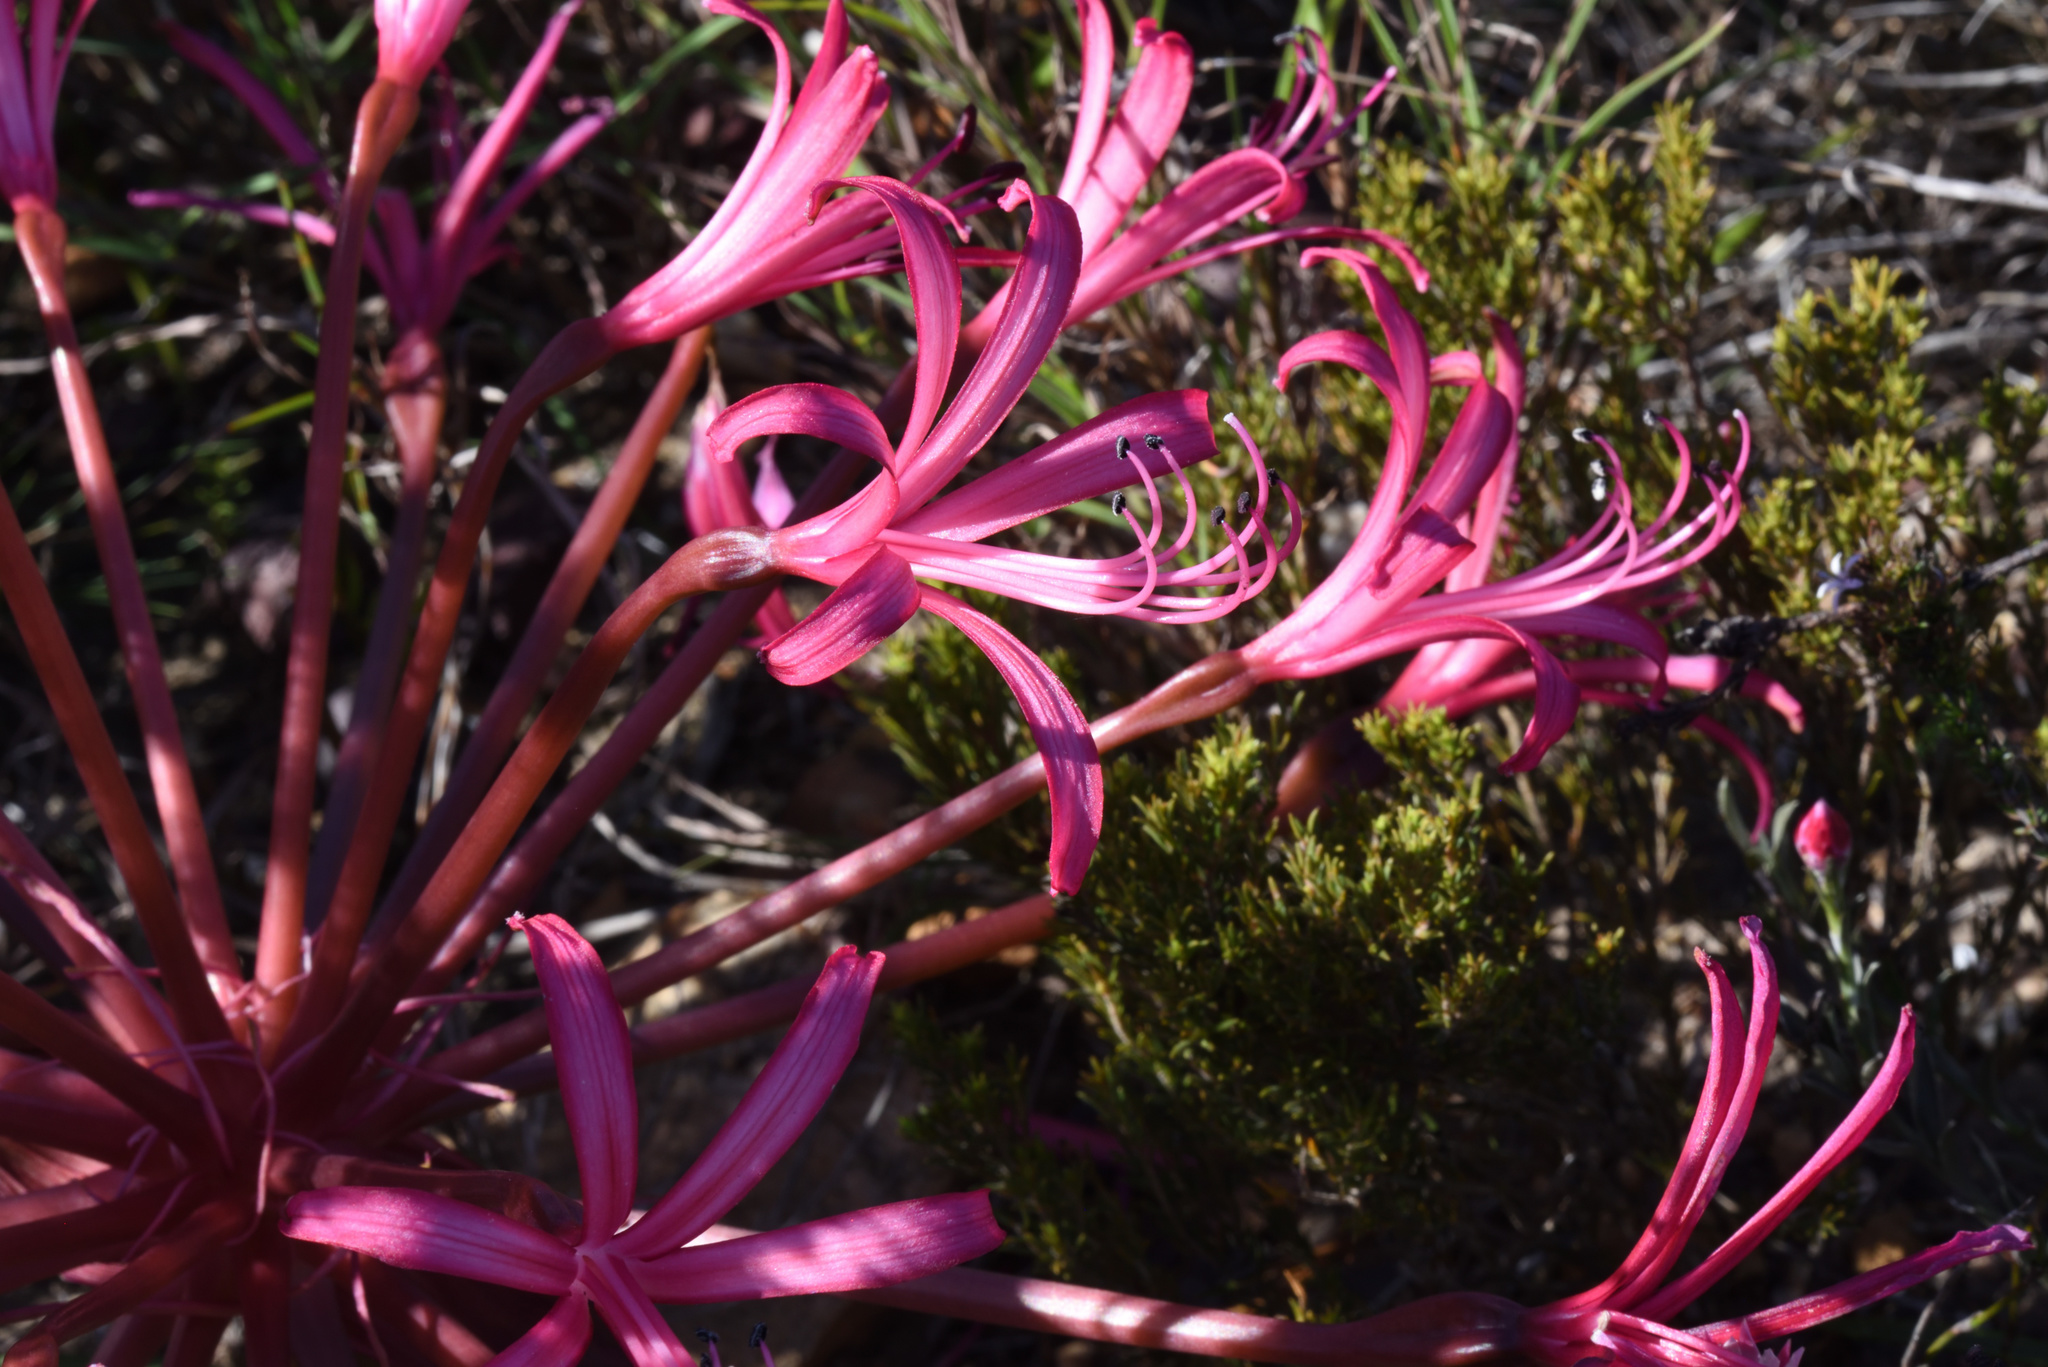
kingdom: Plantae
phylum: Tracheophyta
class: Liliopsida
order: Asparagales
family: Amaryllidaceae
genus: Brunsvigia
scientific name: Brunsvigia gregaria
